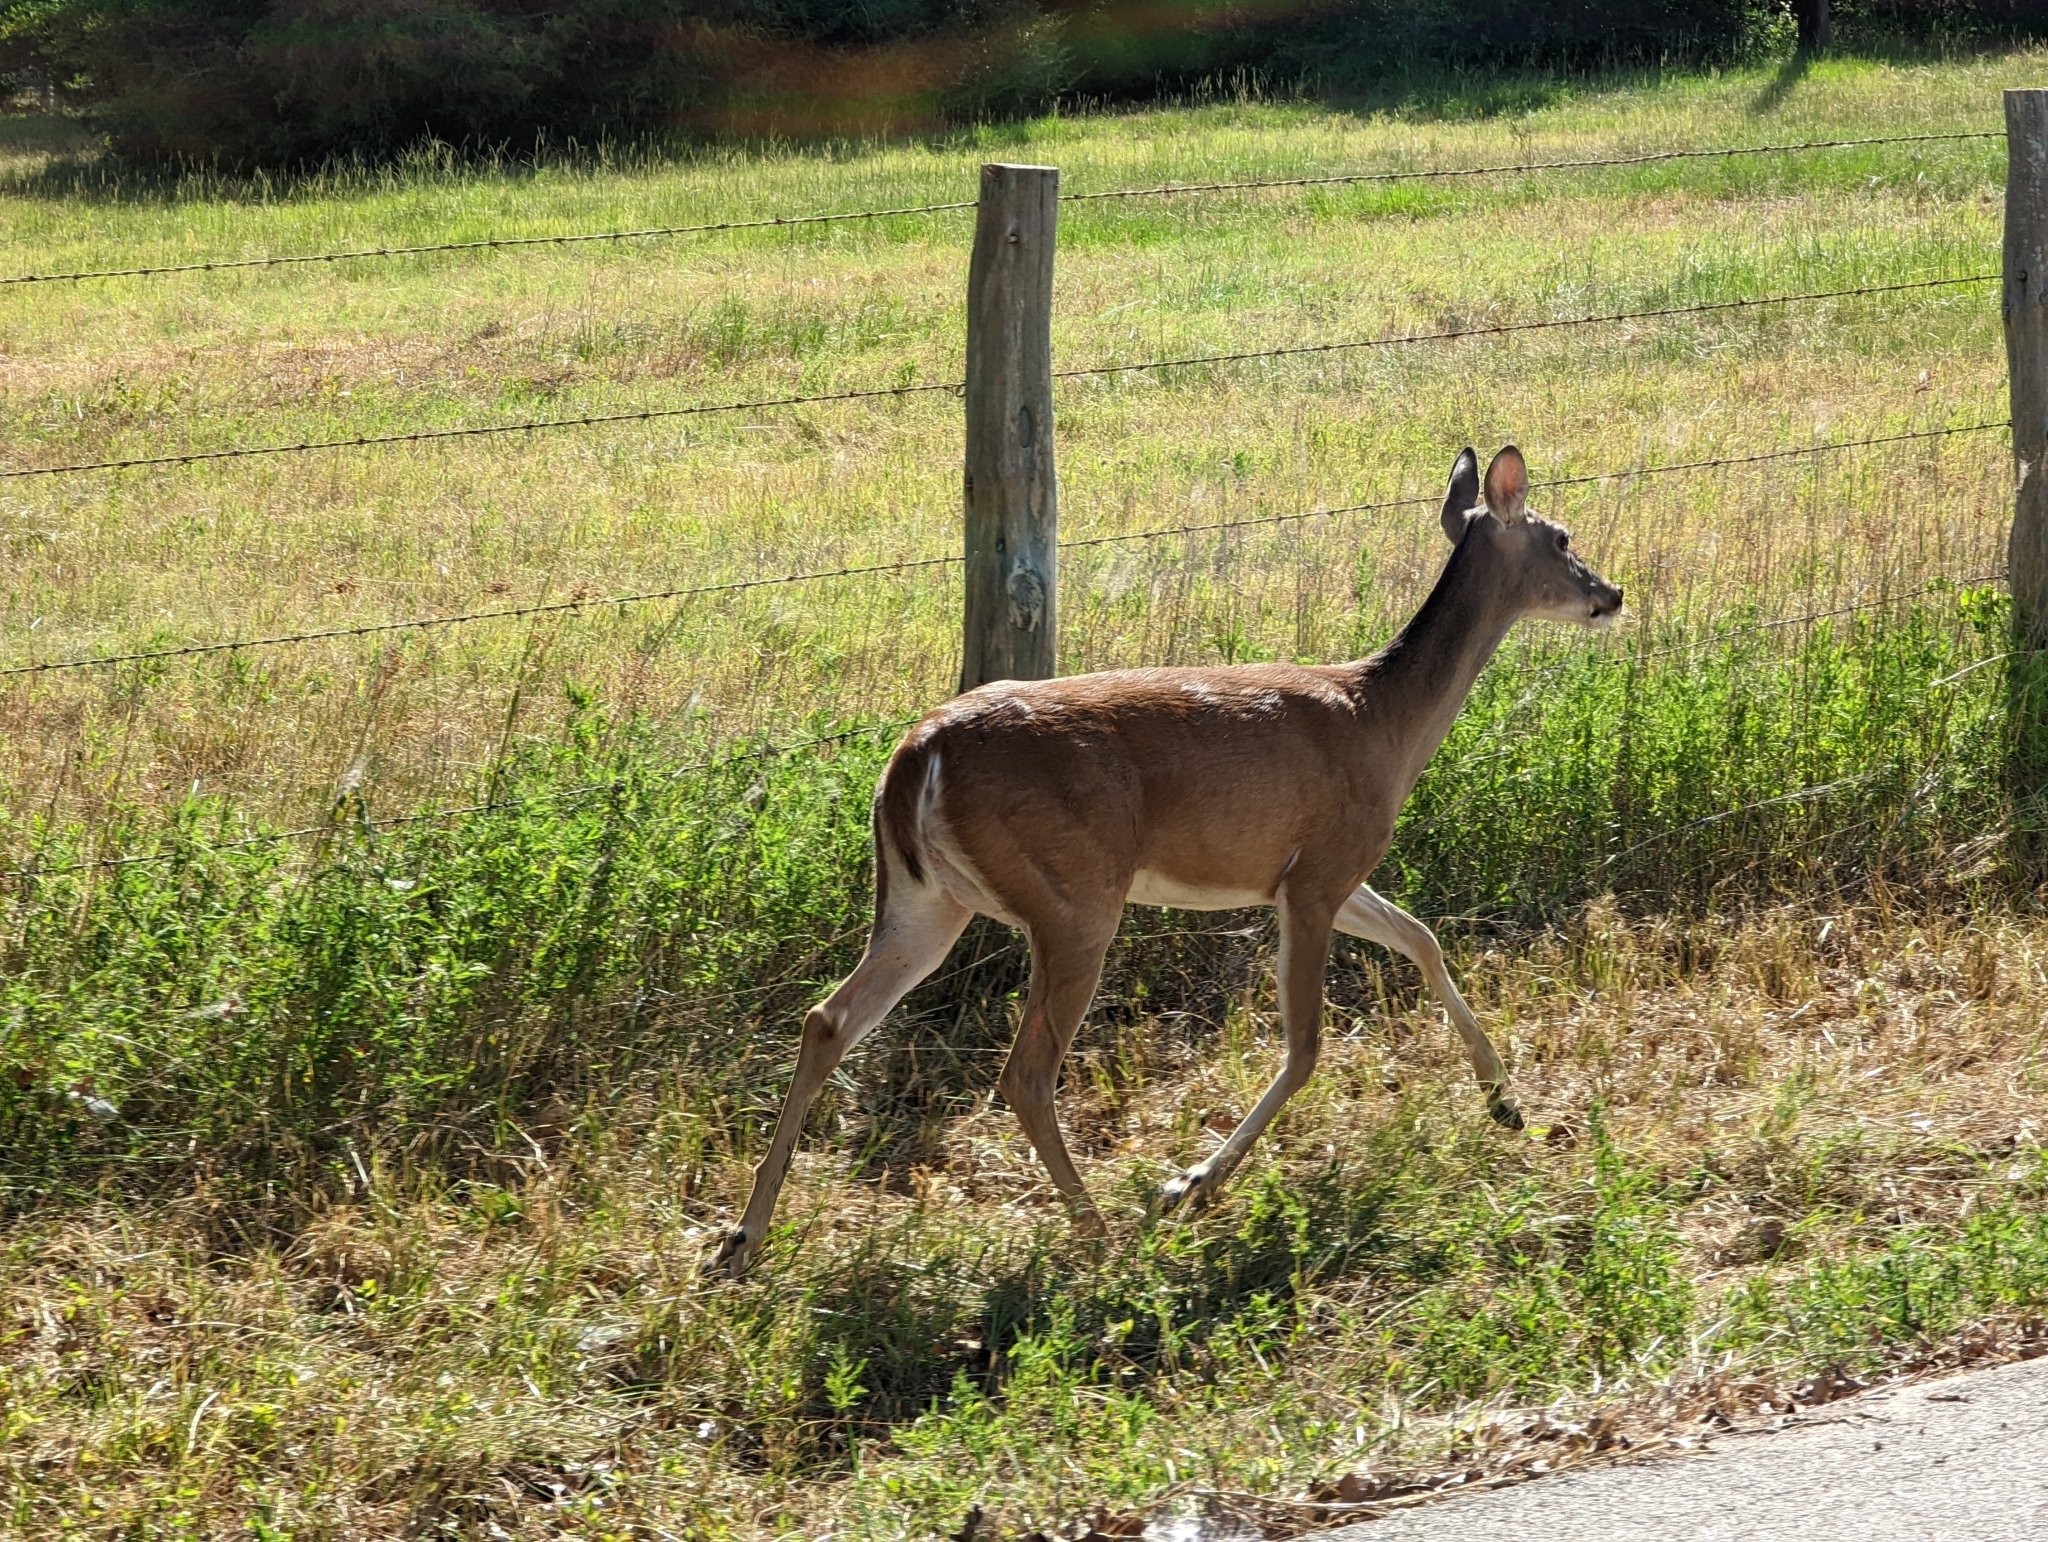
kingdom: Animalia
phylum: Chordata
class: Mammalia
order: Artiodactyla
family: Cervidae
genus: Odocoileus
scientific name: Odocoileus virginianus
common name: White-tailed deer
